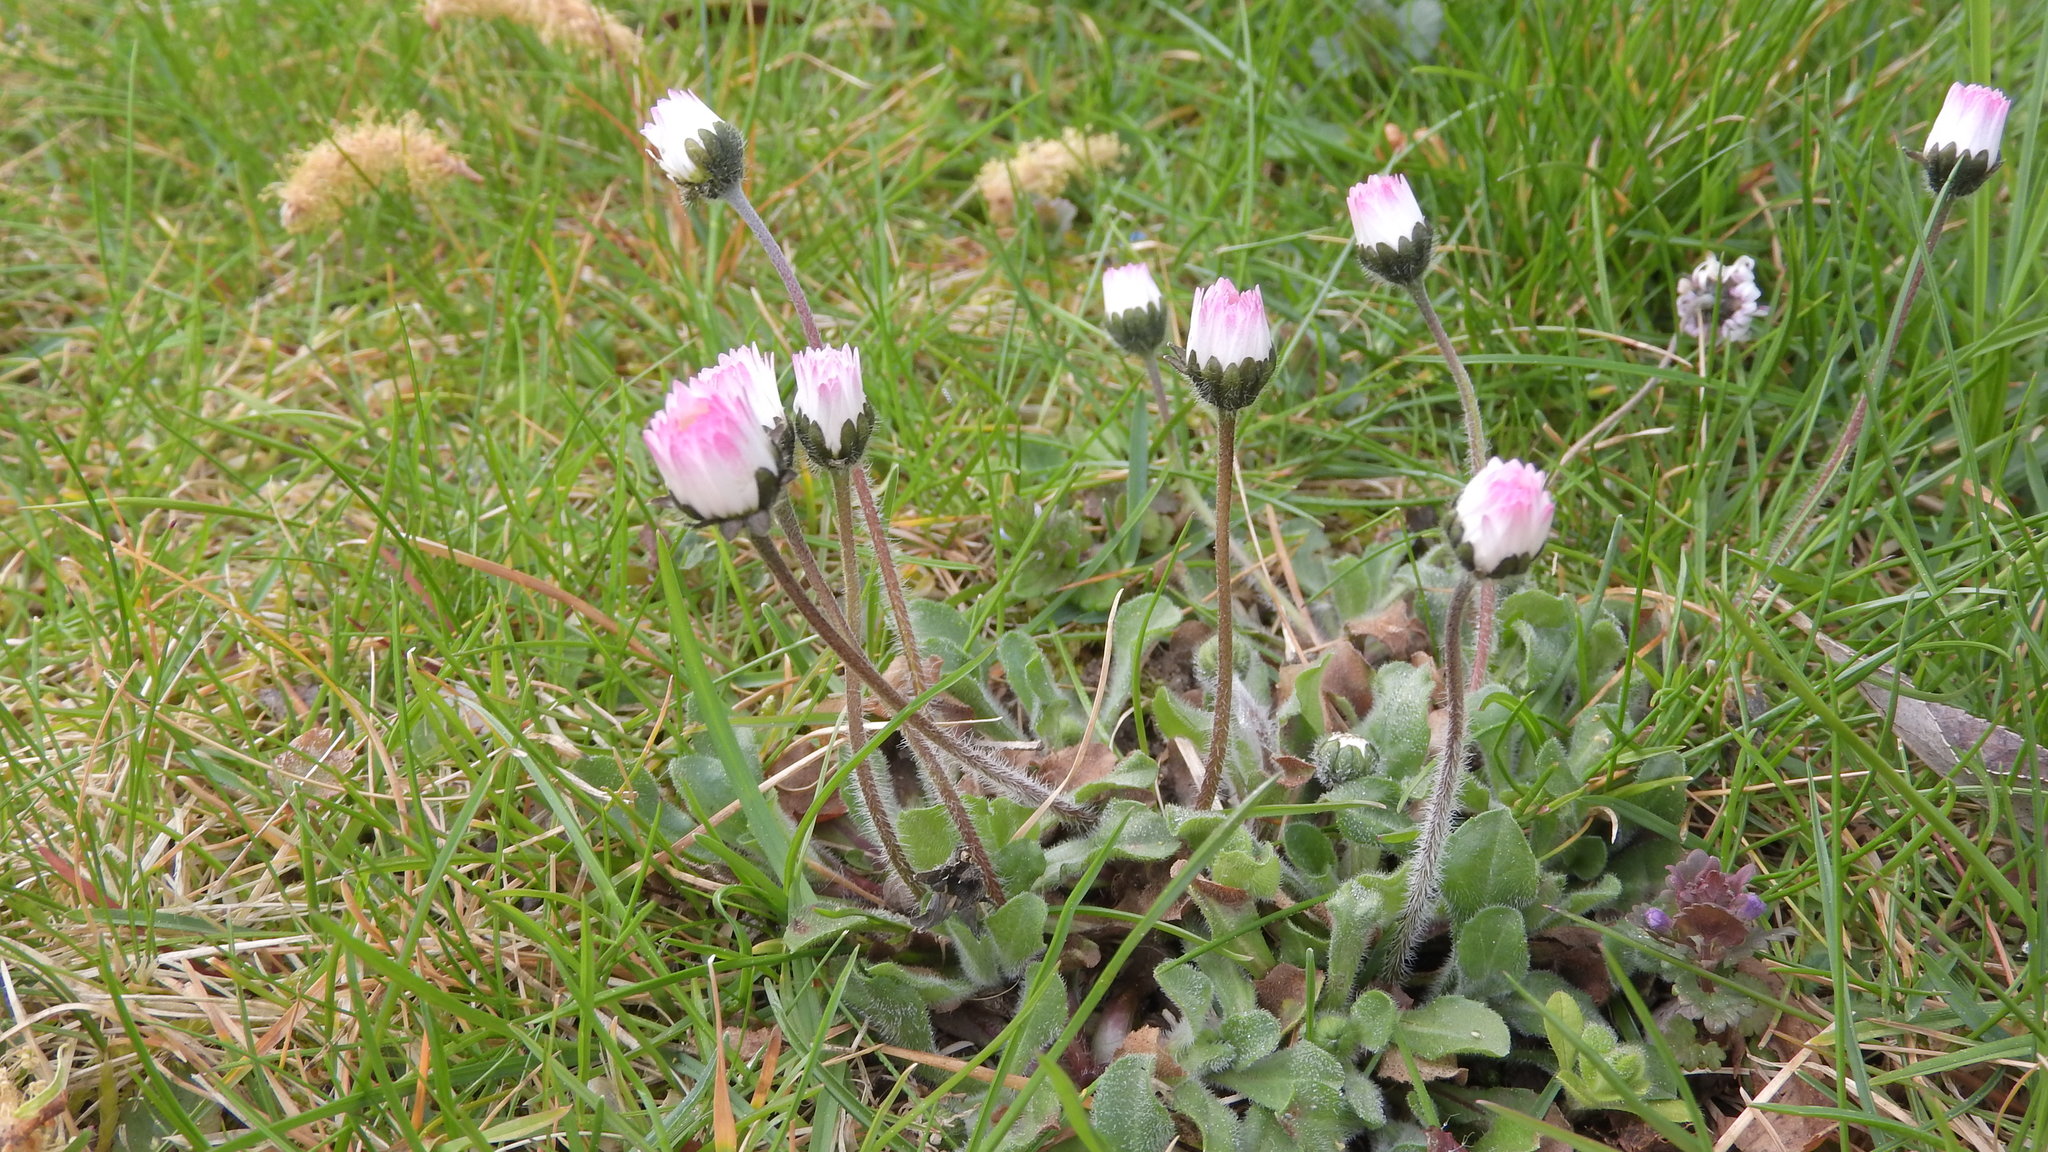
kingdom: Plantae
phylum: Tracheophyta
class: Magnoliopsida
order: Asterales
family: Asteraceae
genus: Bellis
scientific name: Bellis perennis
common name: Lawndaisy
